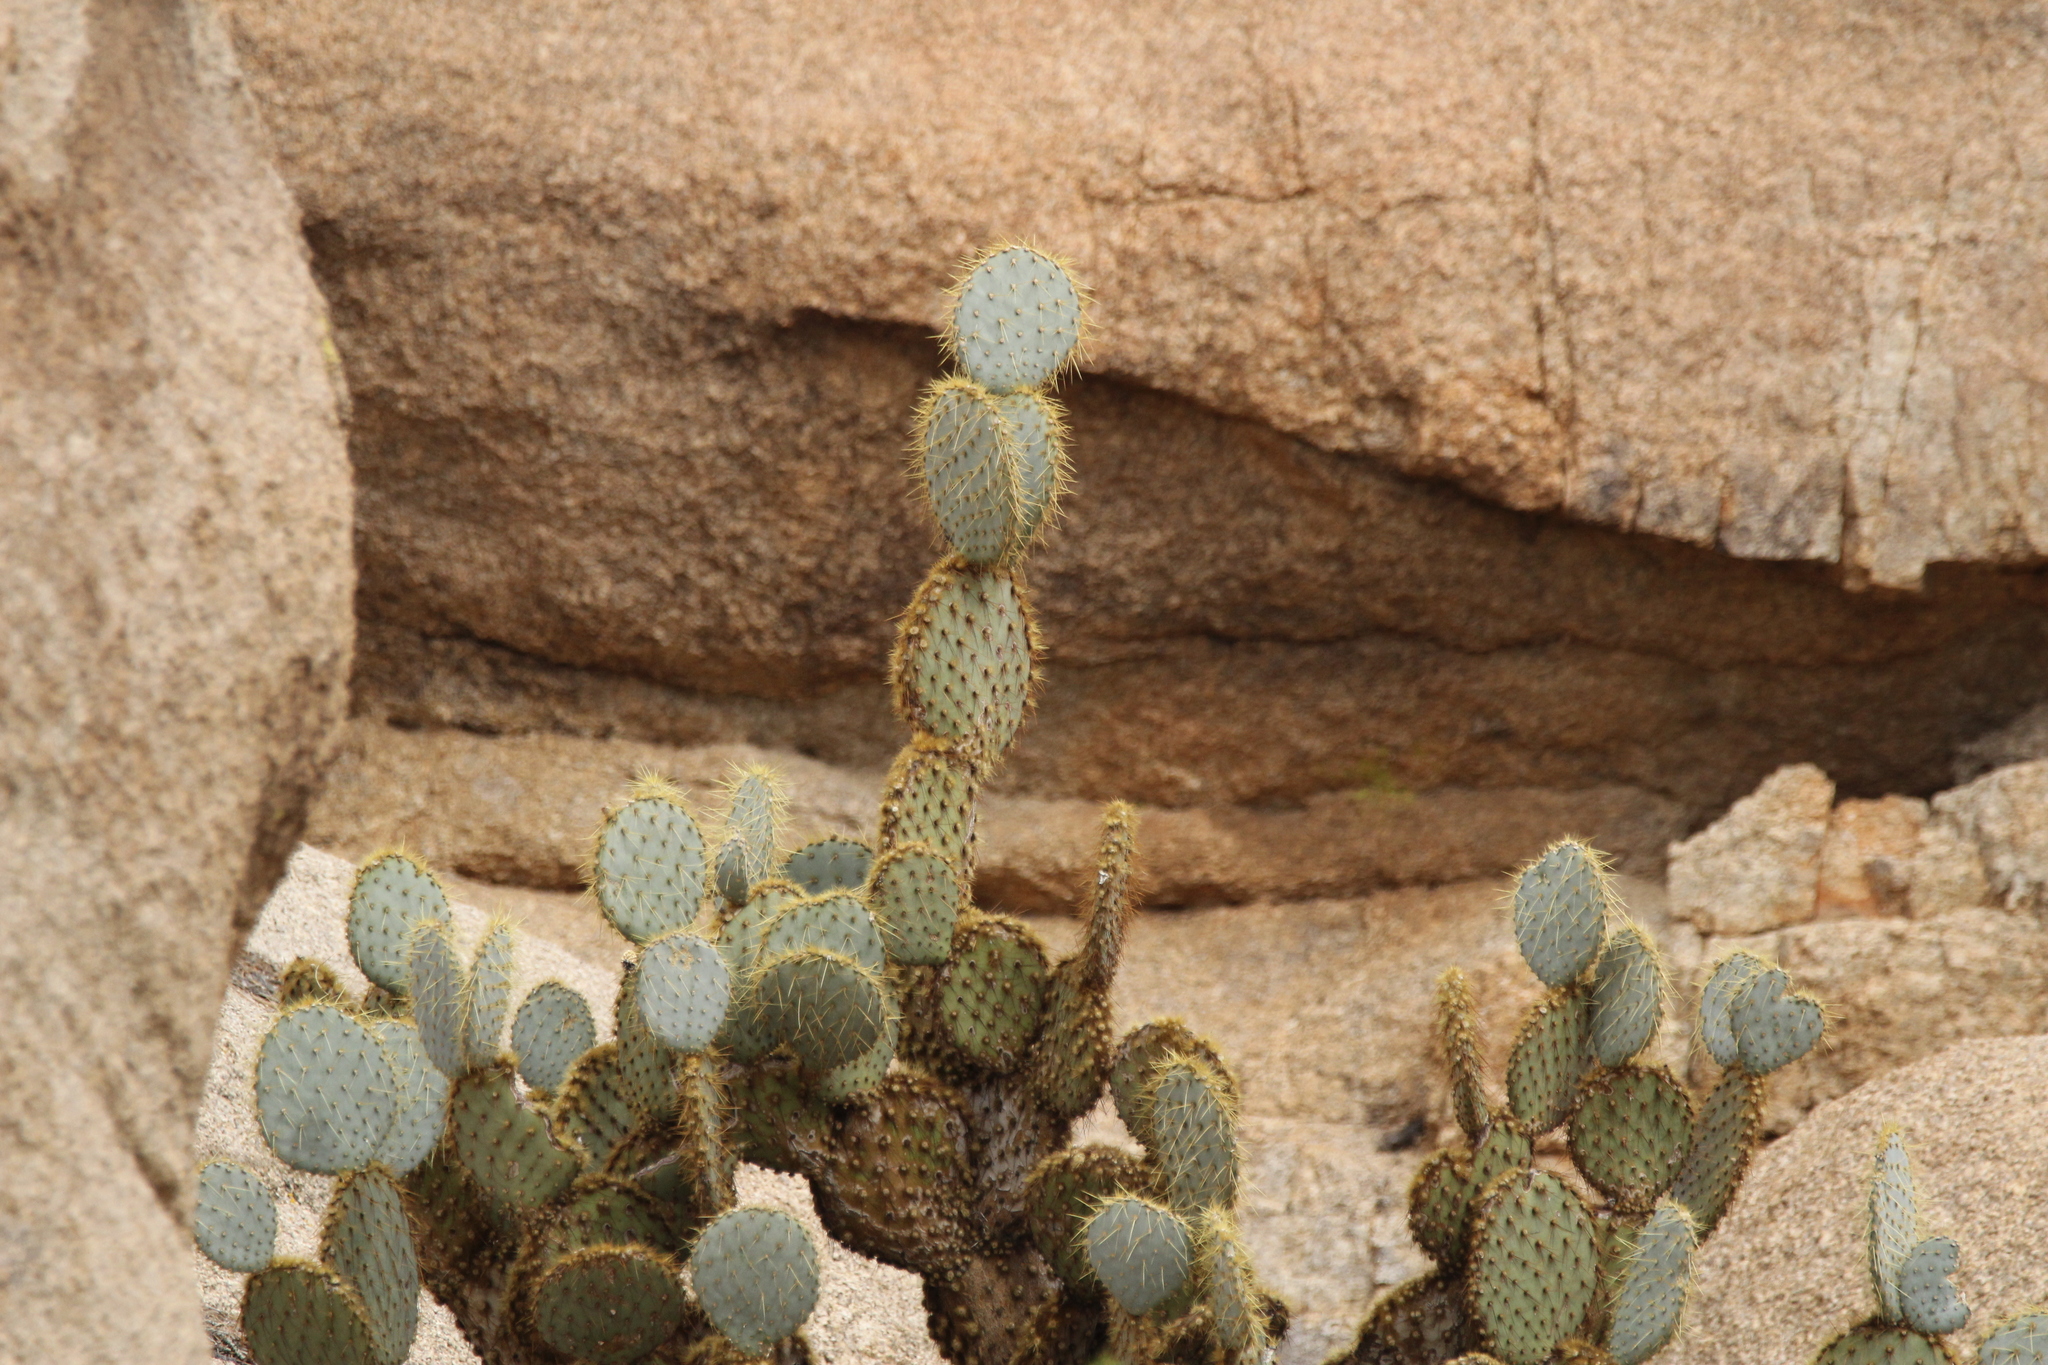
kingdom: Plantae
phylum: Tracheophyta
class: Magnoliopsida
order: Caryophyllales
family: Cactaceae
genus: Opuntia
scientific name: Opuntia chlorotica
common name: Dollar-joint prickly-pear
